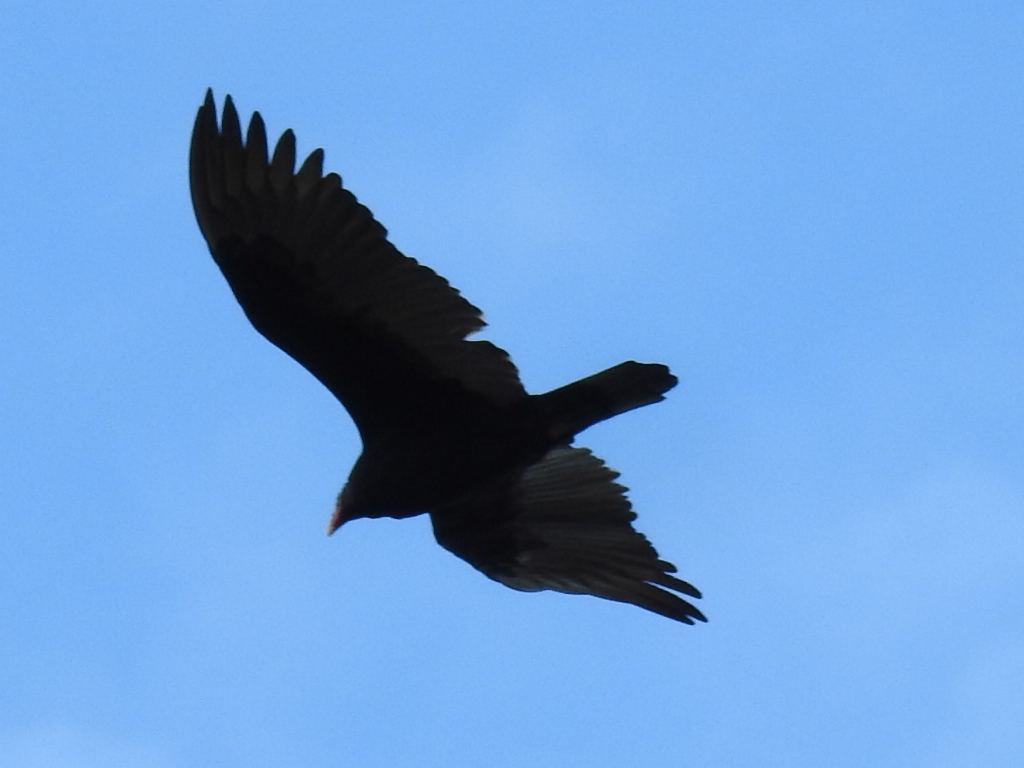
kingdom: Animalia
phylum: Chordata
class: Aves
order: Accipitriformes
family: Cathartidae
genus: Cathartes
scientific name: Cathartes aura
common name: Turkey vulture
